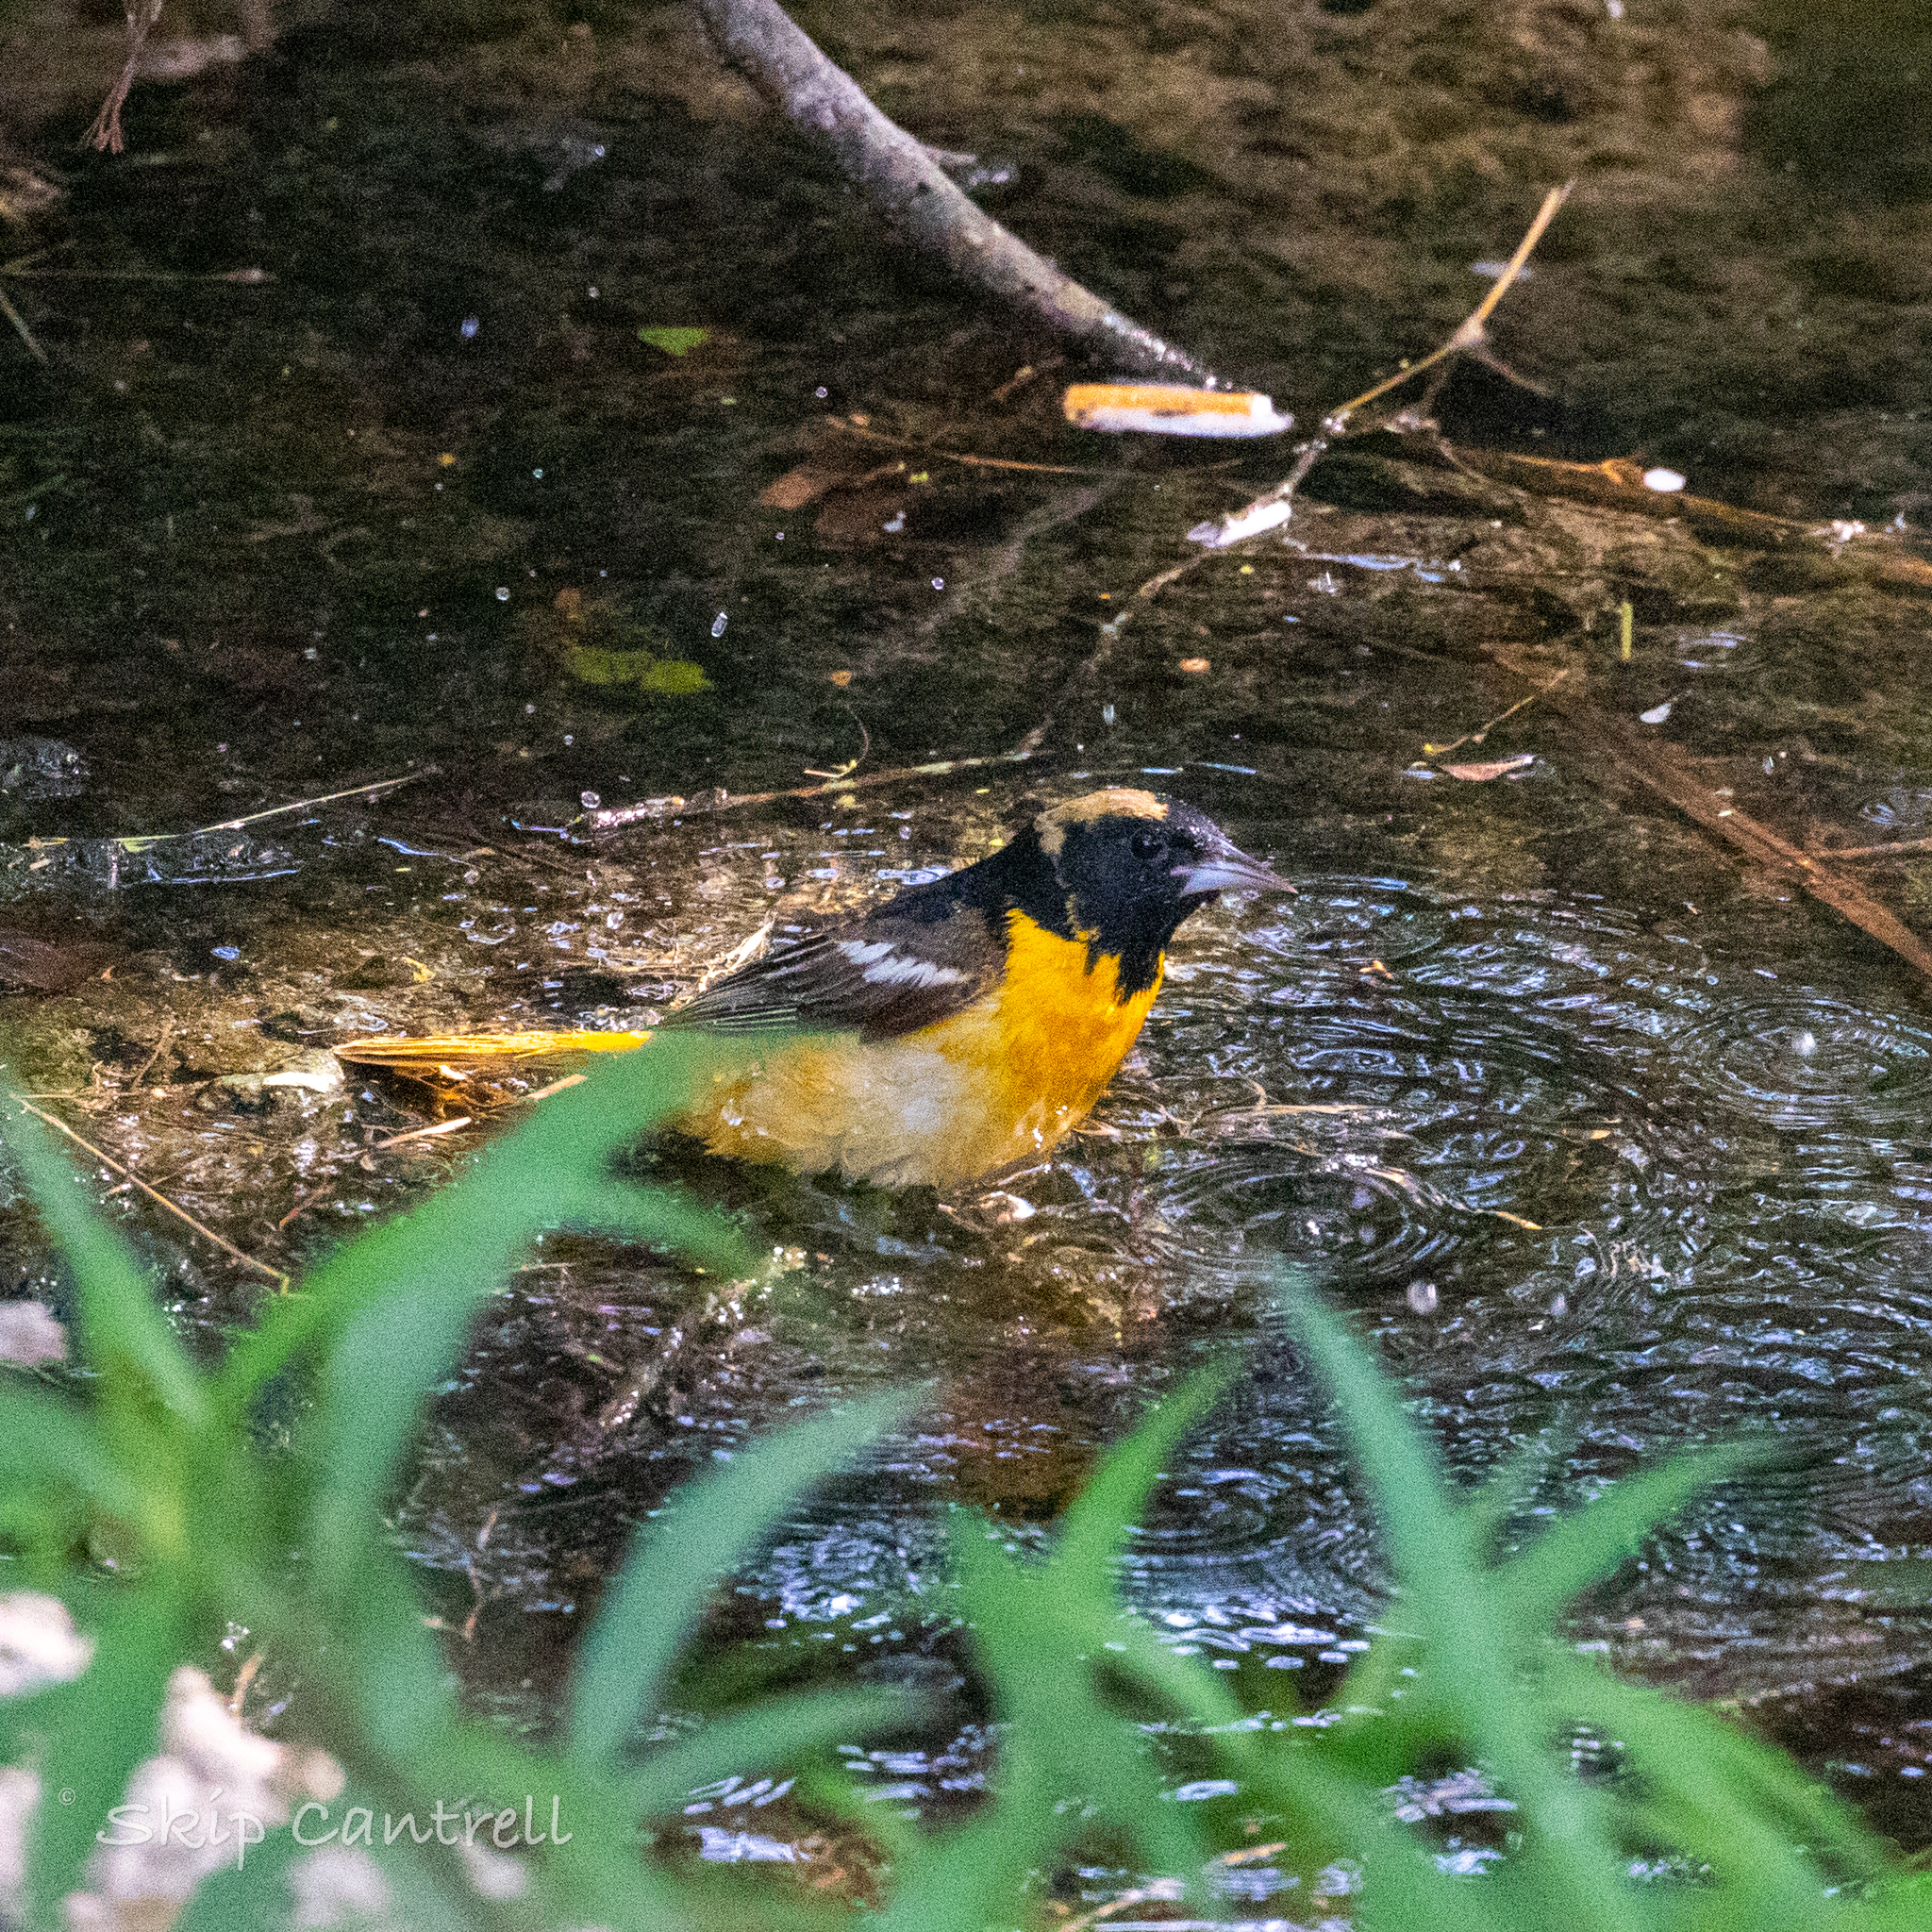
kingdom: Animalia
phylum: Chordata
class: Aves
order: Passeriformes
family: Icteridae
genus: Icterus
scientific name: Icterus galbula
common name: Baltimore oriole
